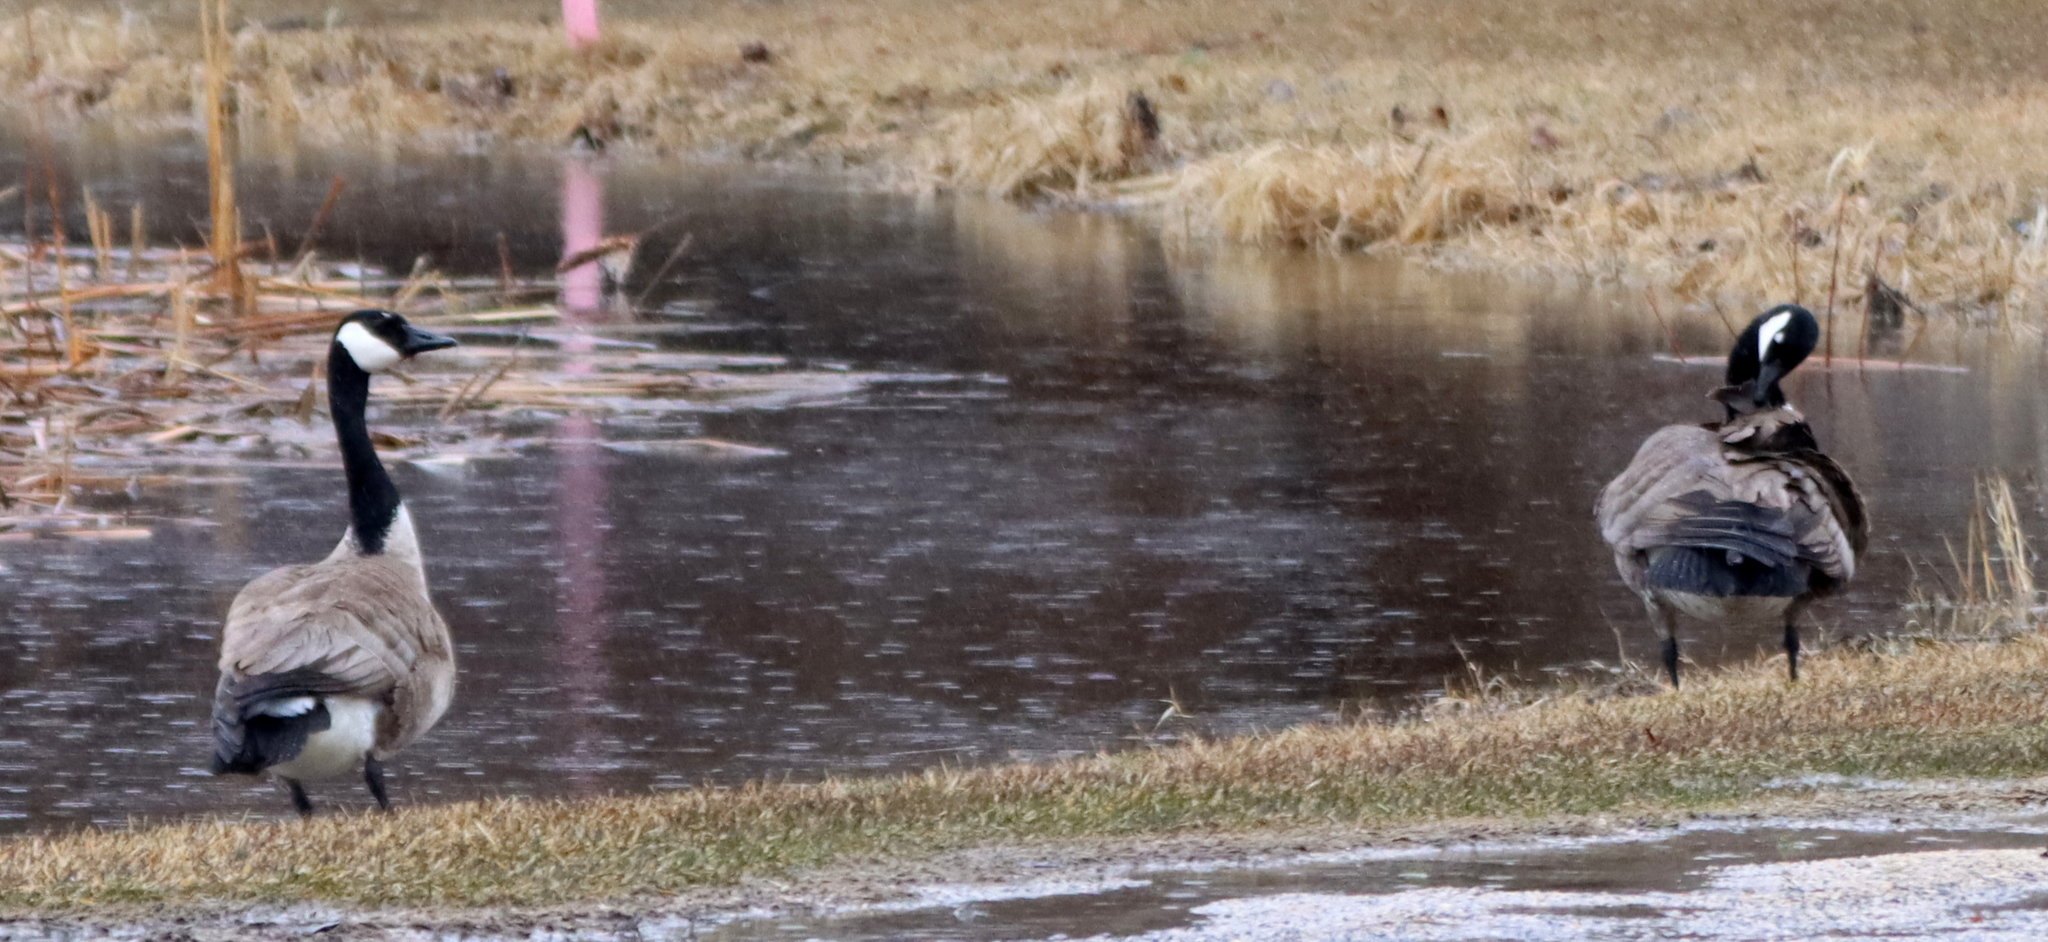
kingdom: Animalia
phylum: Chordata
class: Aves
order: Anseriformes
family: Anatidae
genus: Branta
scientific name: Branta canadensis
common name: Canada goose
